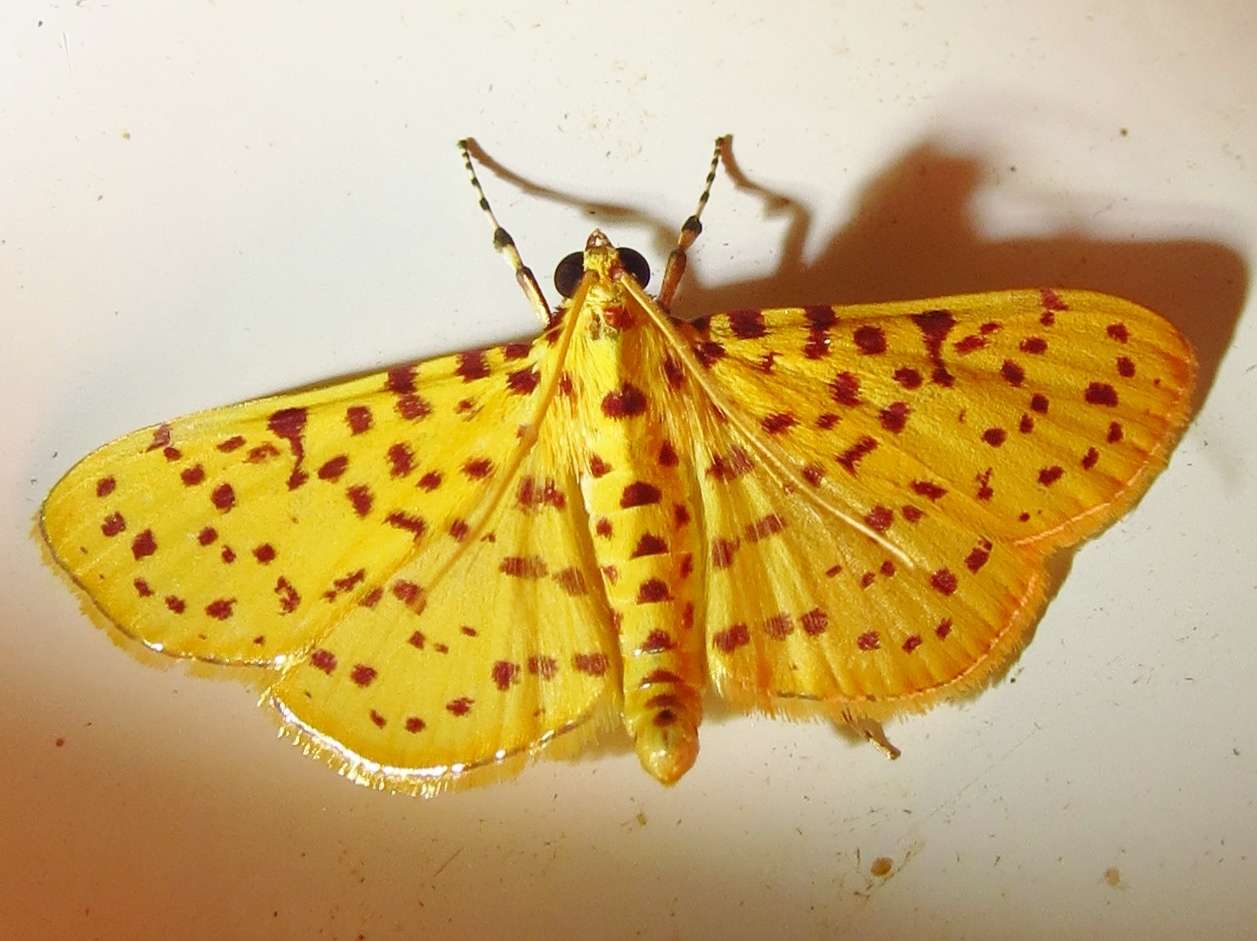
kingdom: Animalia
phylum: Arthropoda
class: Insecta
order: Lepidoptera
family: Crambidae
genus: Polygrammodes
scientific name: Polygrammodes elevata
